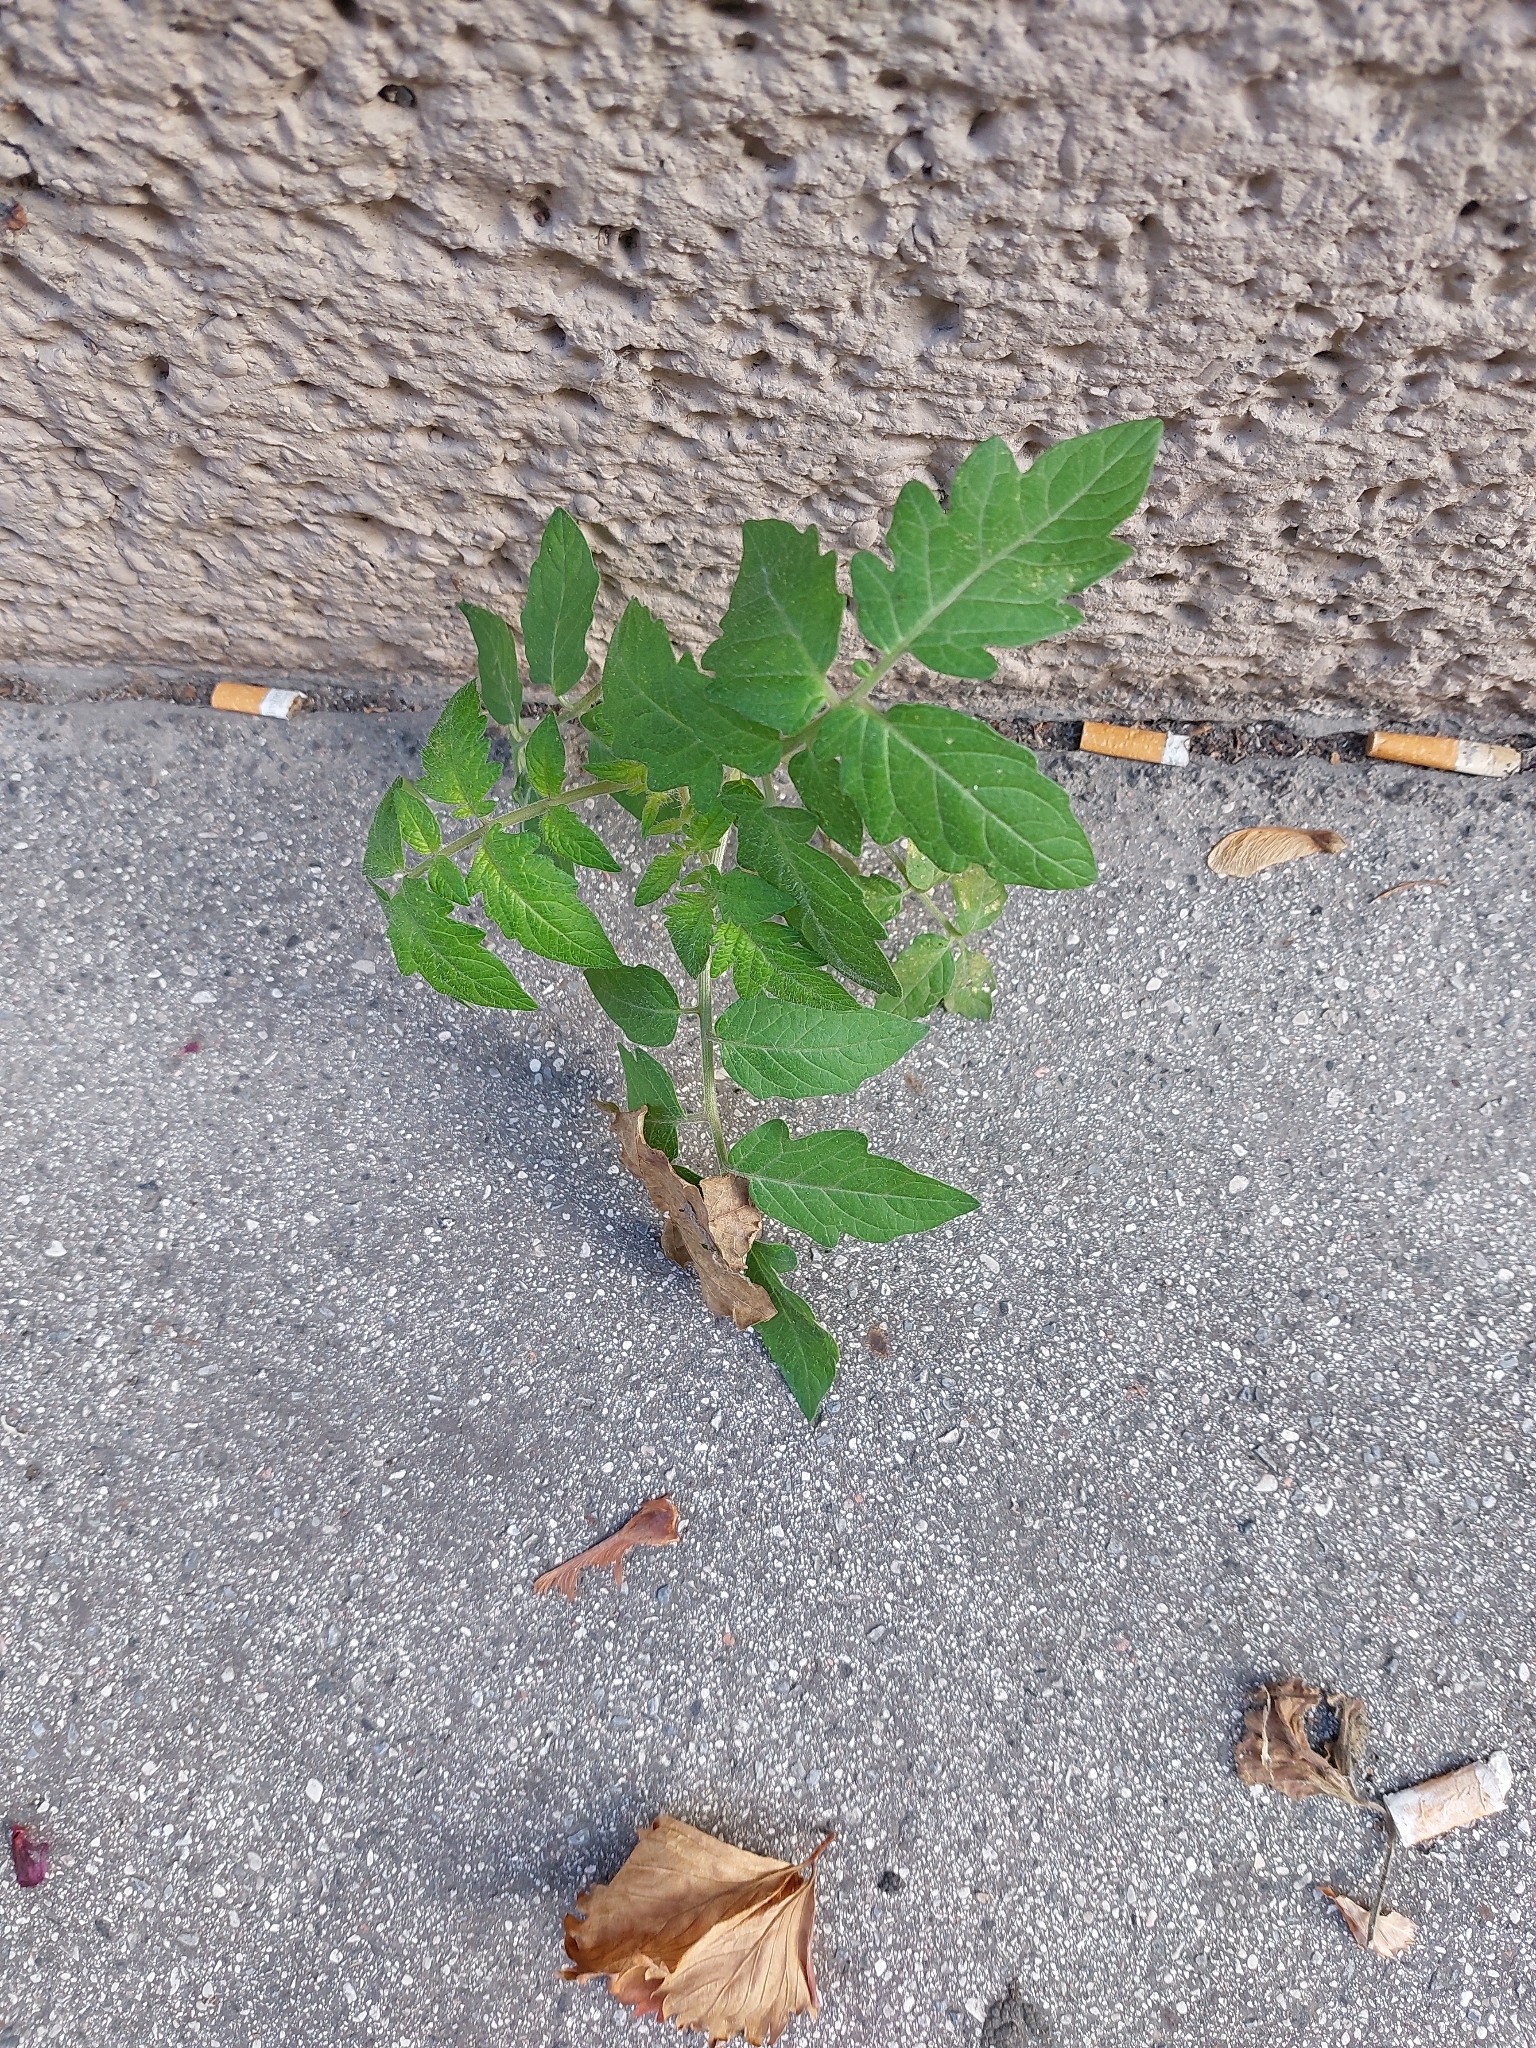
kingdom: Plantae
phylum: Tracheophyta
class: Magnoliopsida
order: Solanales
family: Solanaceae
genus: Solanum
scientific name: Solanum lycopersicum
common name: Garden tomato
